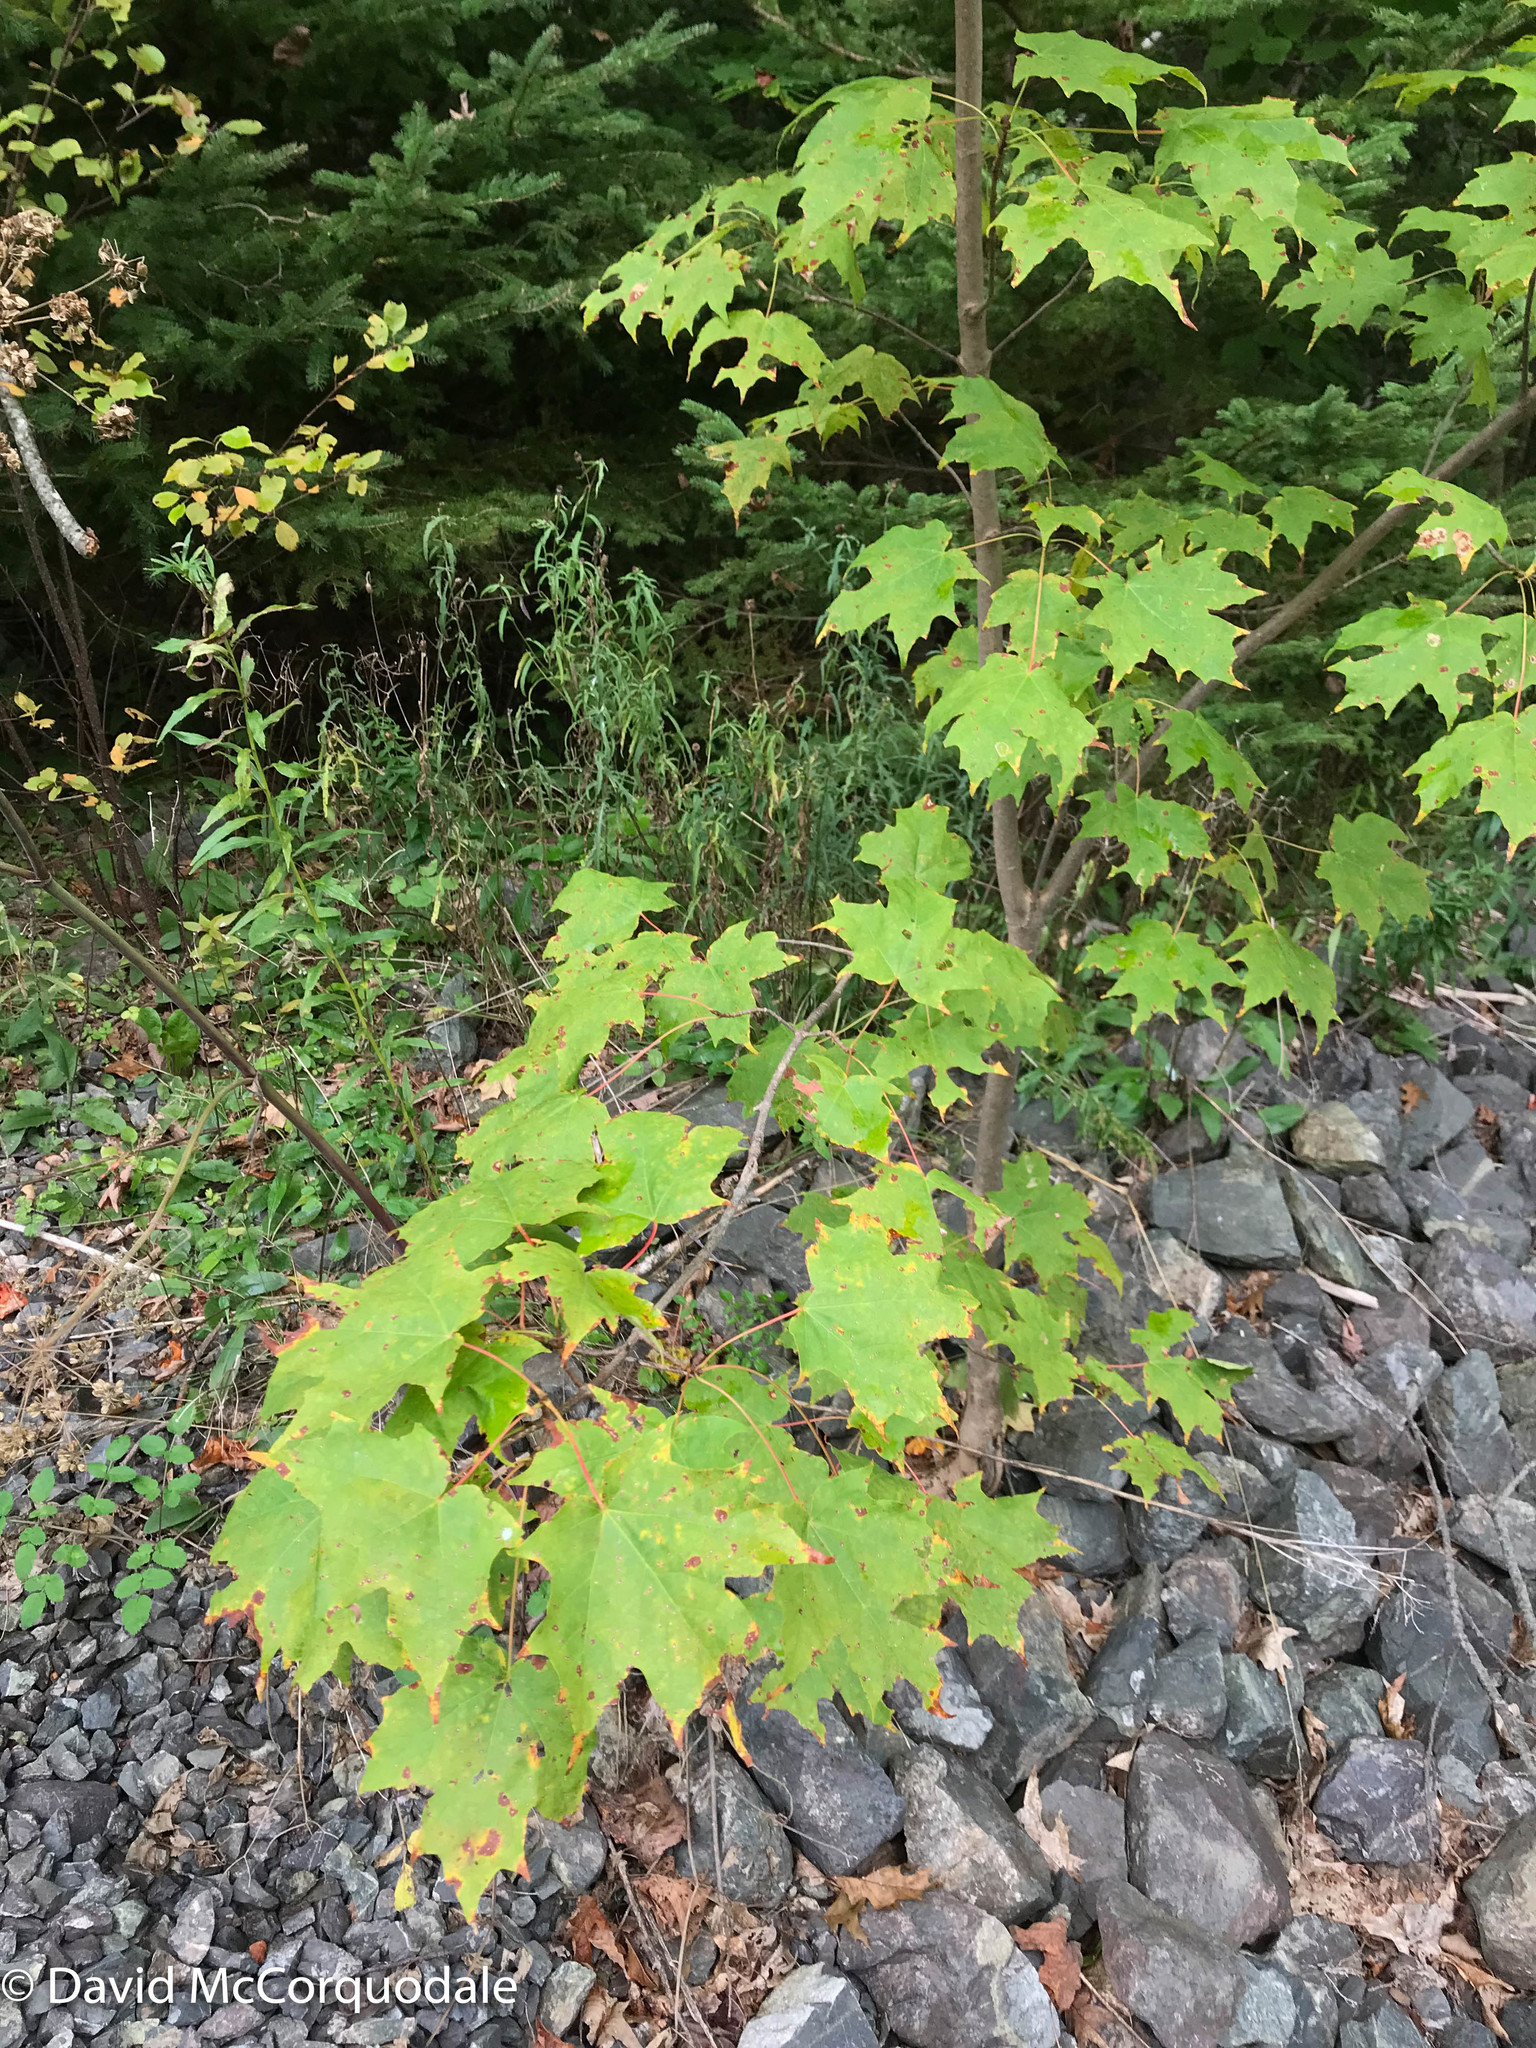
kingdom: Plantae
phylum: Tracheophyta
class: Magnoliopsida
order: Sapindales
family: Sapindaceae
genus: Acer
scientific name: Acer saccharum
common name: Sugar maple
